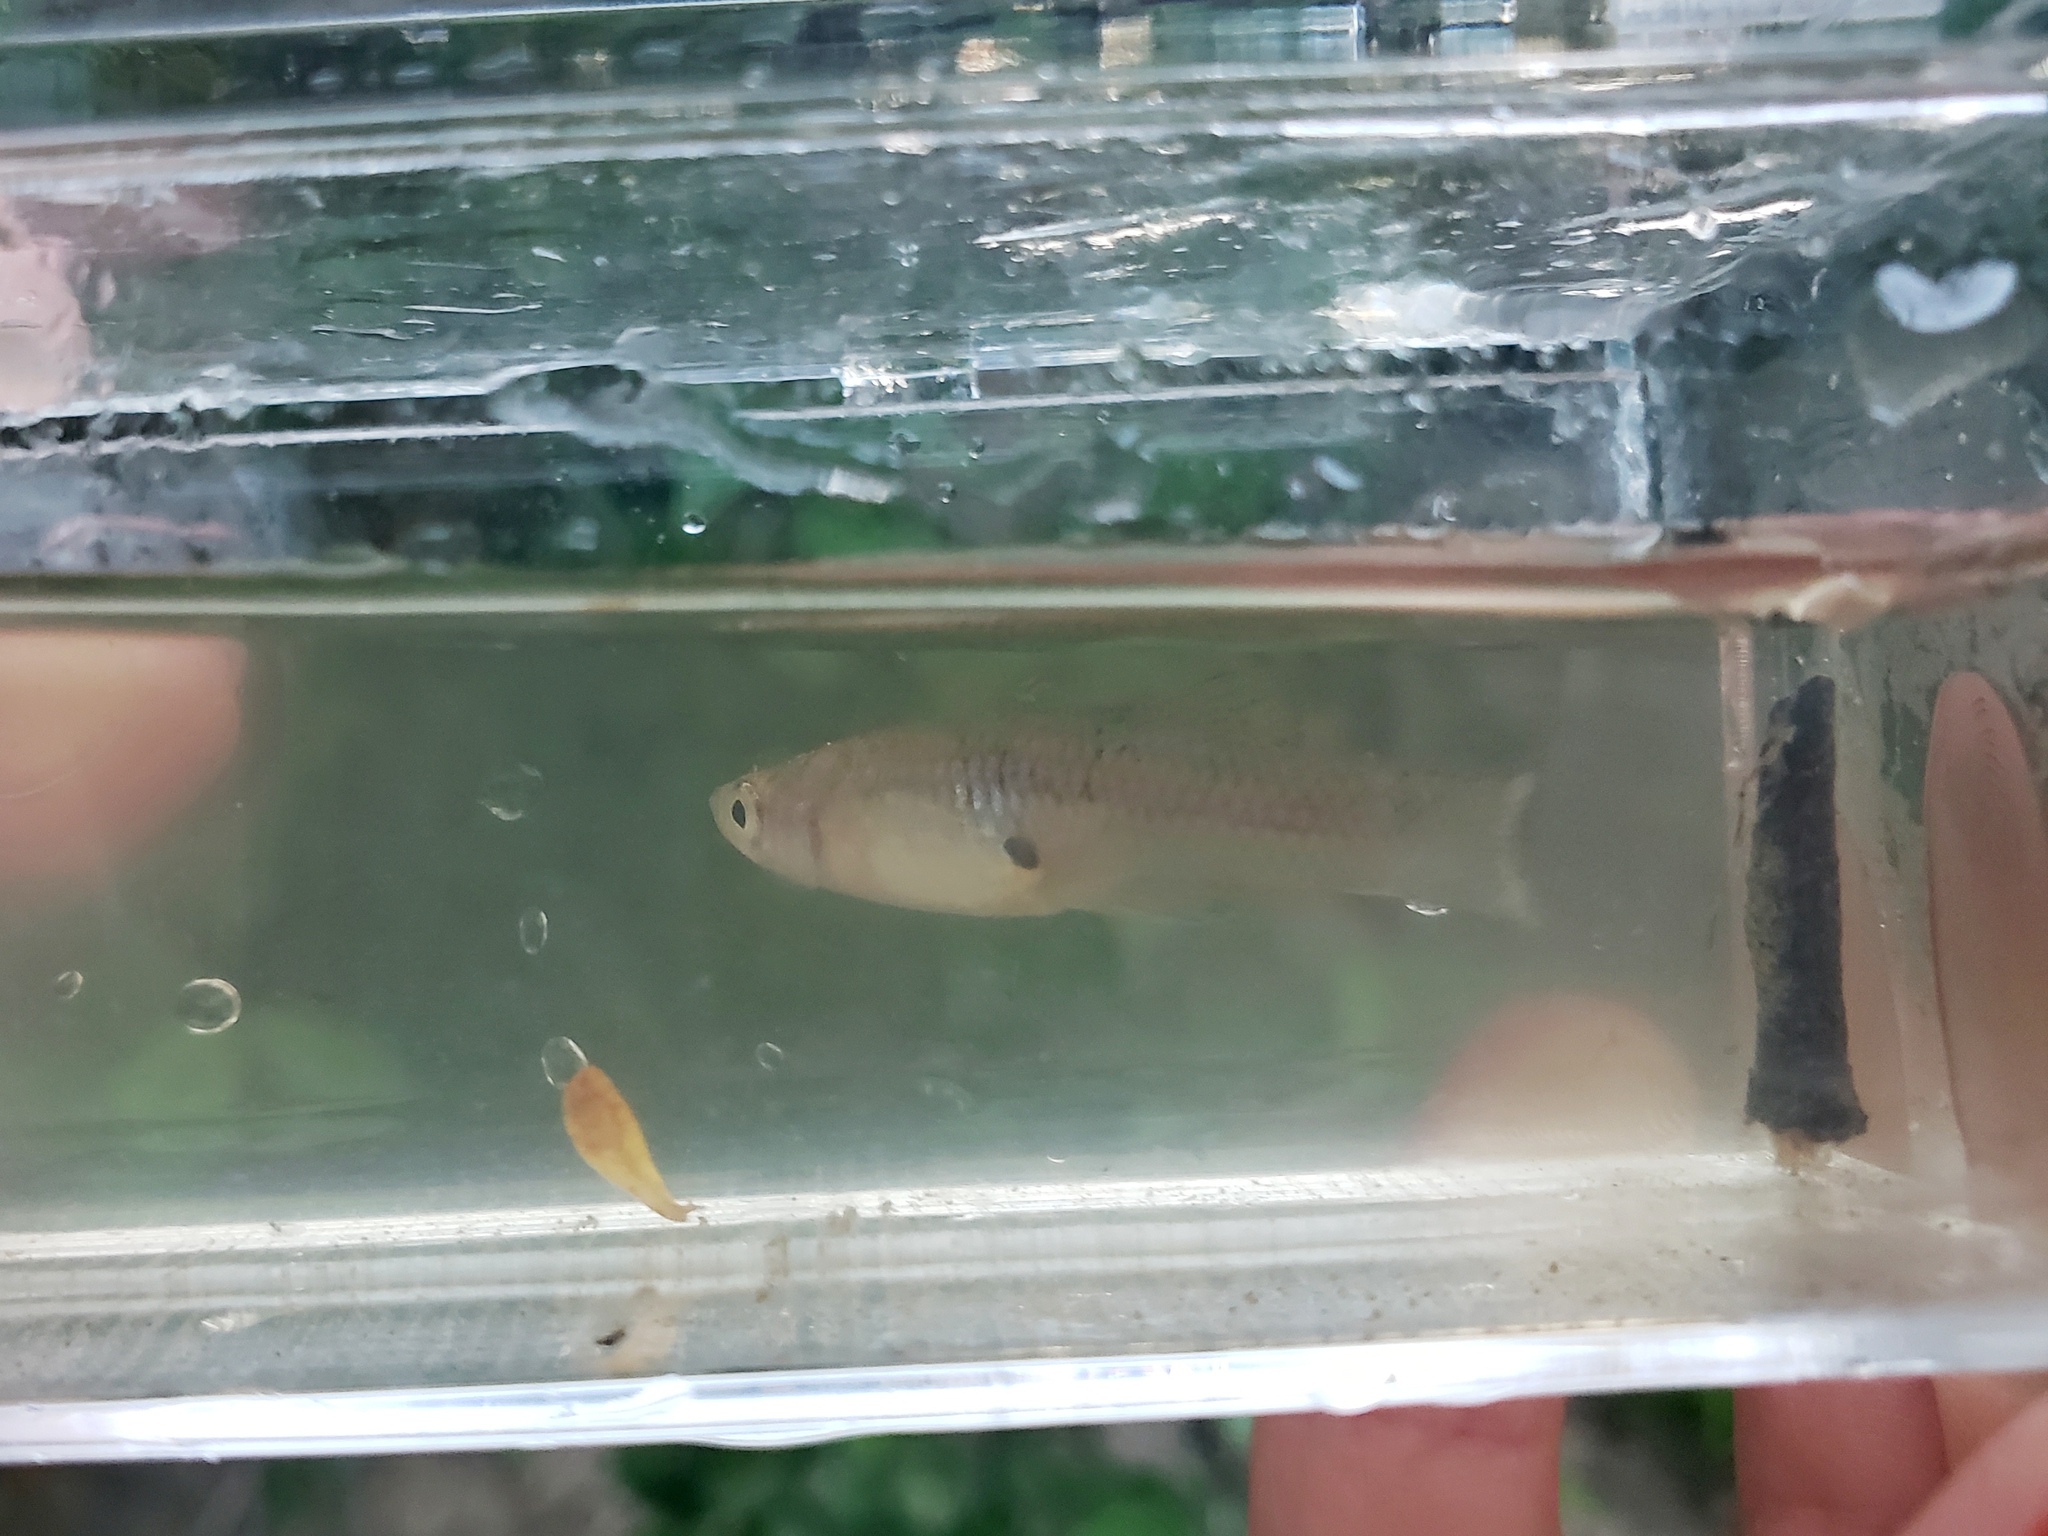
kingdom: Animalia
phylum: Chordata
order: Cyprinodontiformes
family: Poeciliidae
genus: Gambusia
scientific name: Gambusia affinis
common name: Mosquitofish
